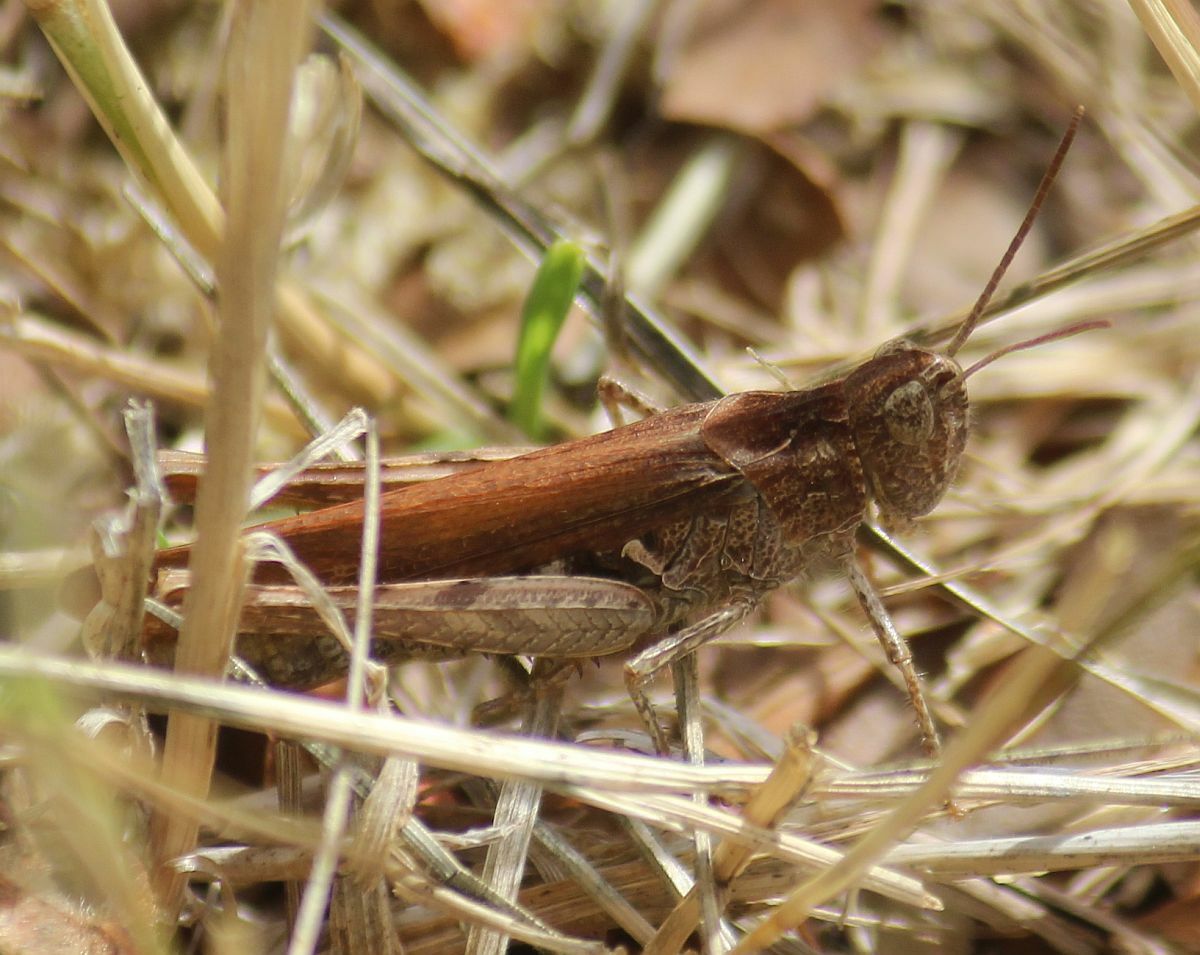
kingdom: Animalia
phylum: Arthropoda
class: Insecta
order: Orthoptera
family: Acrididae
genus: Chorthippus
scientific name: Chorthippus brunneus
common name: Field grasshopper
